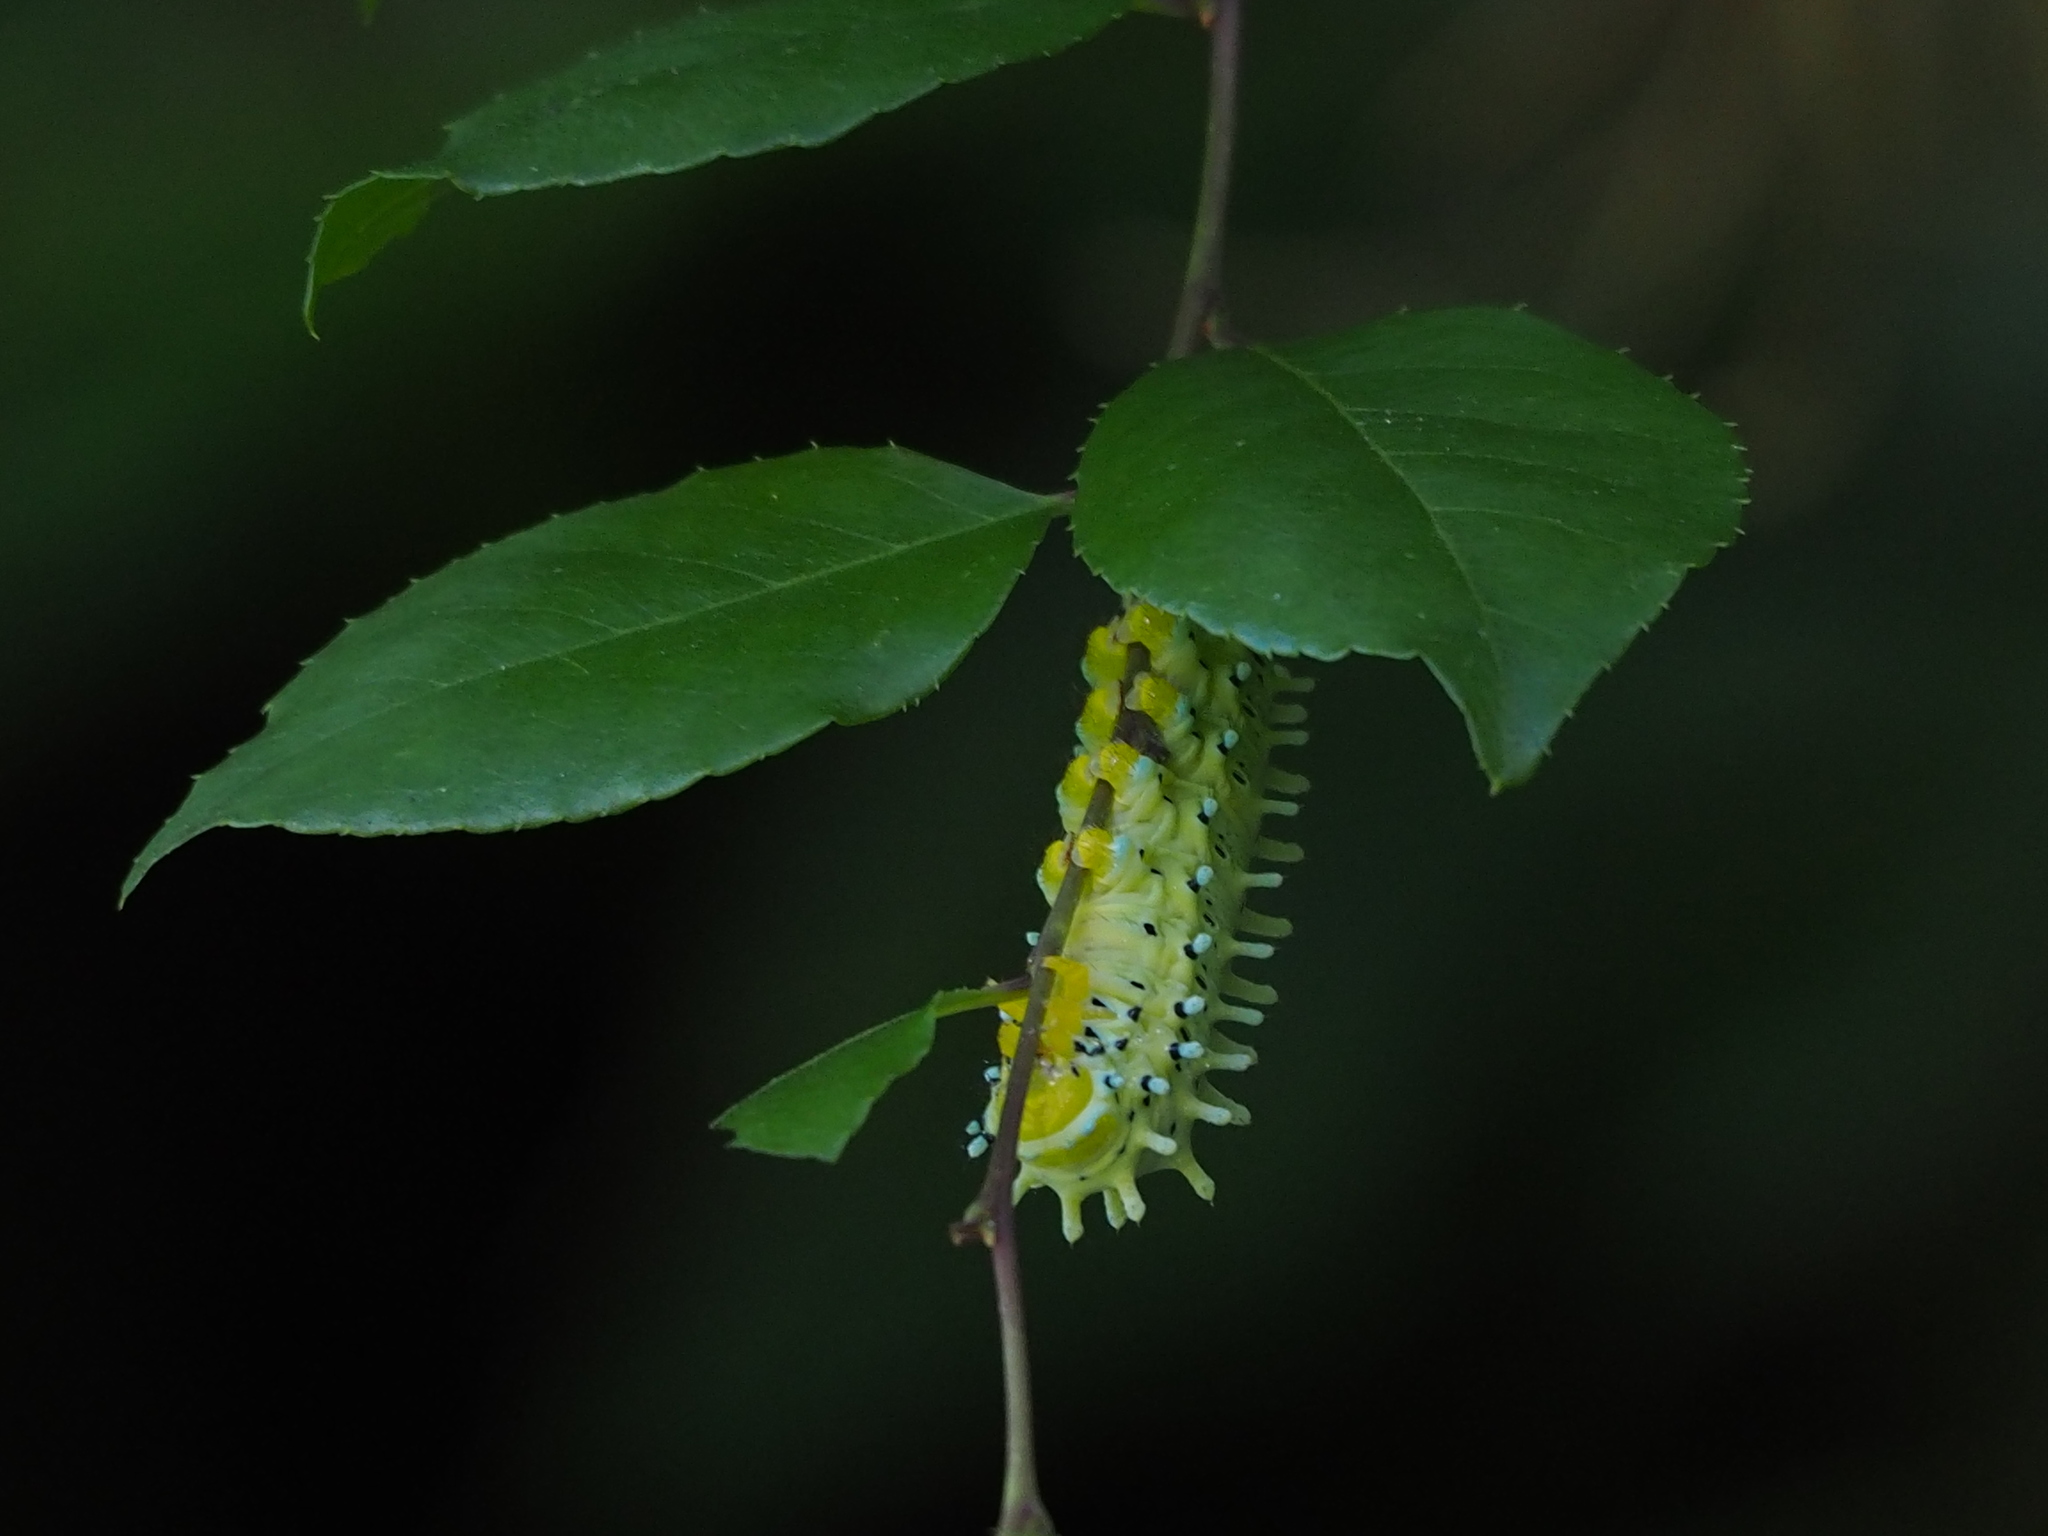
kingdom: Animalia
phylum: Arthropoda
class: Insecta
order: Lepidoptera
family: Saturniidae
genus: Samia
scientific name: Samia wangi
